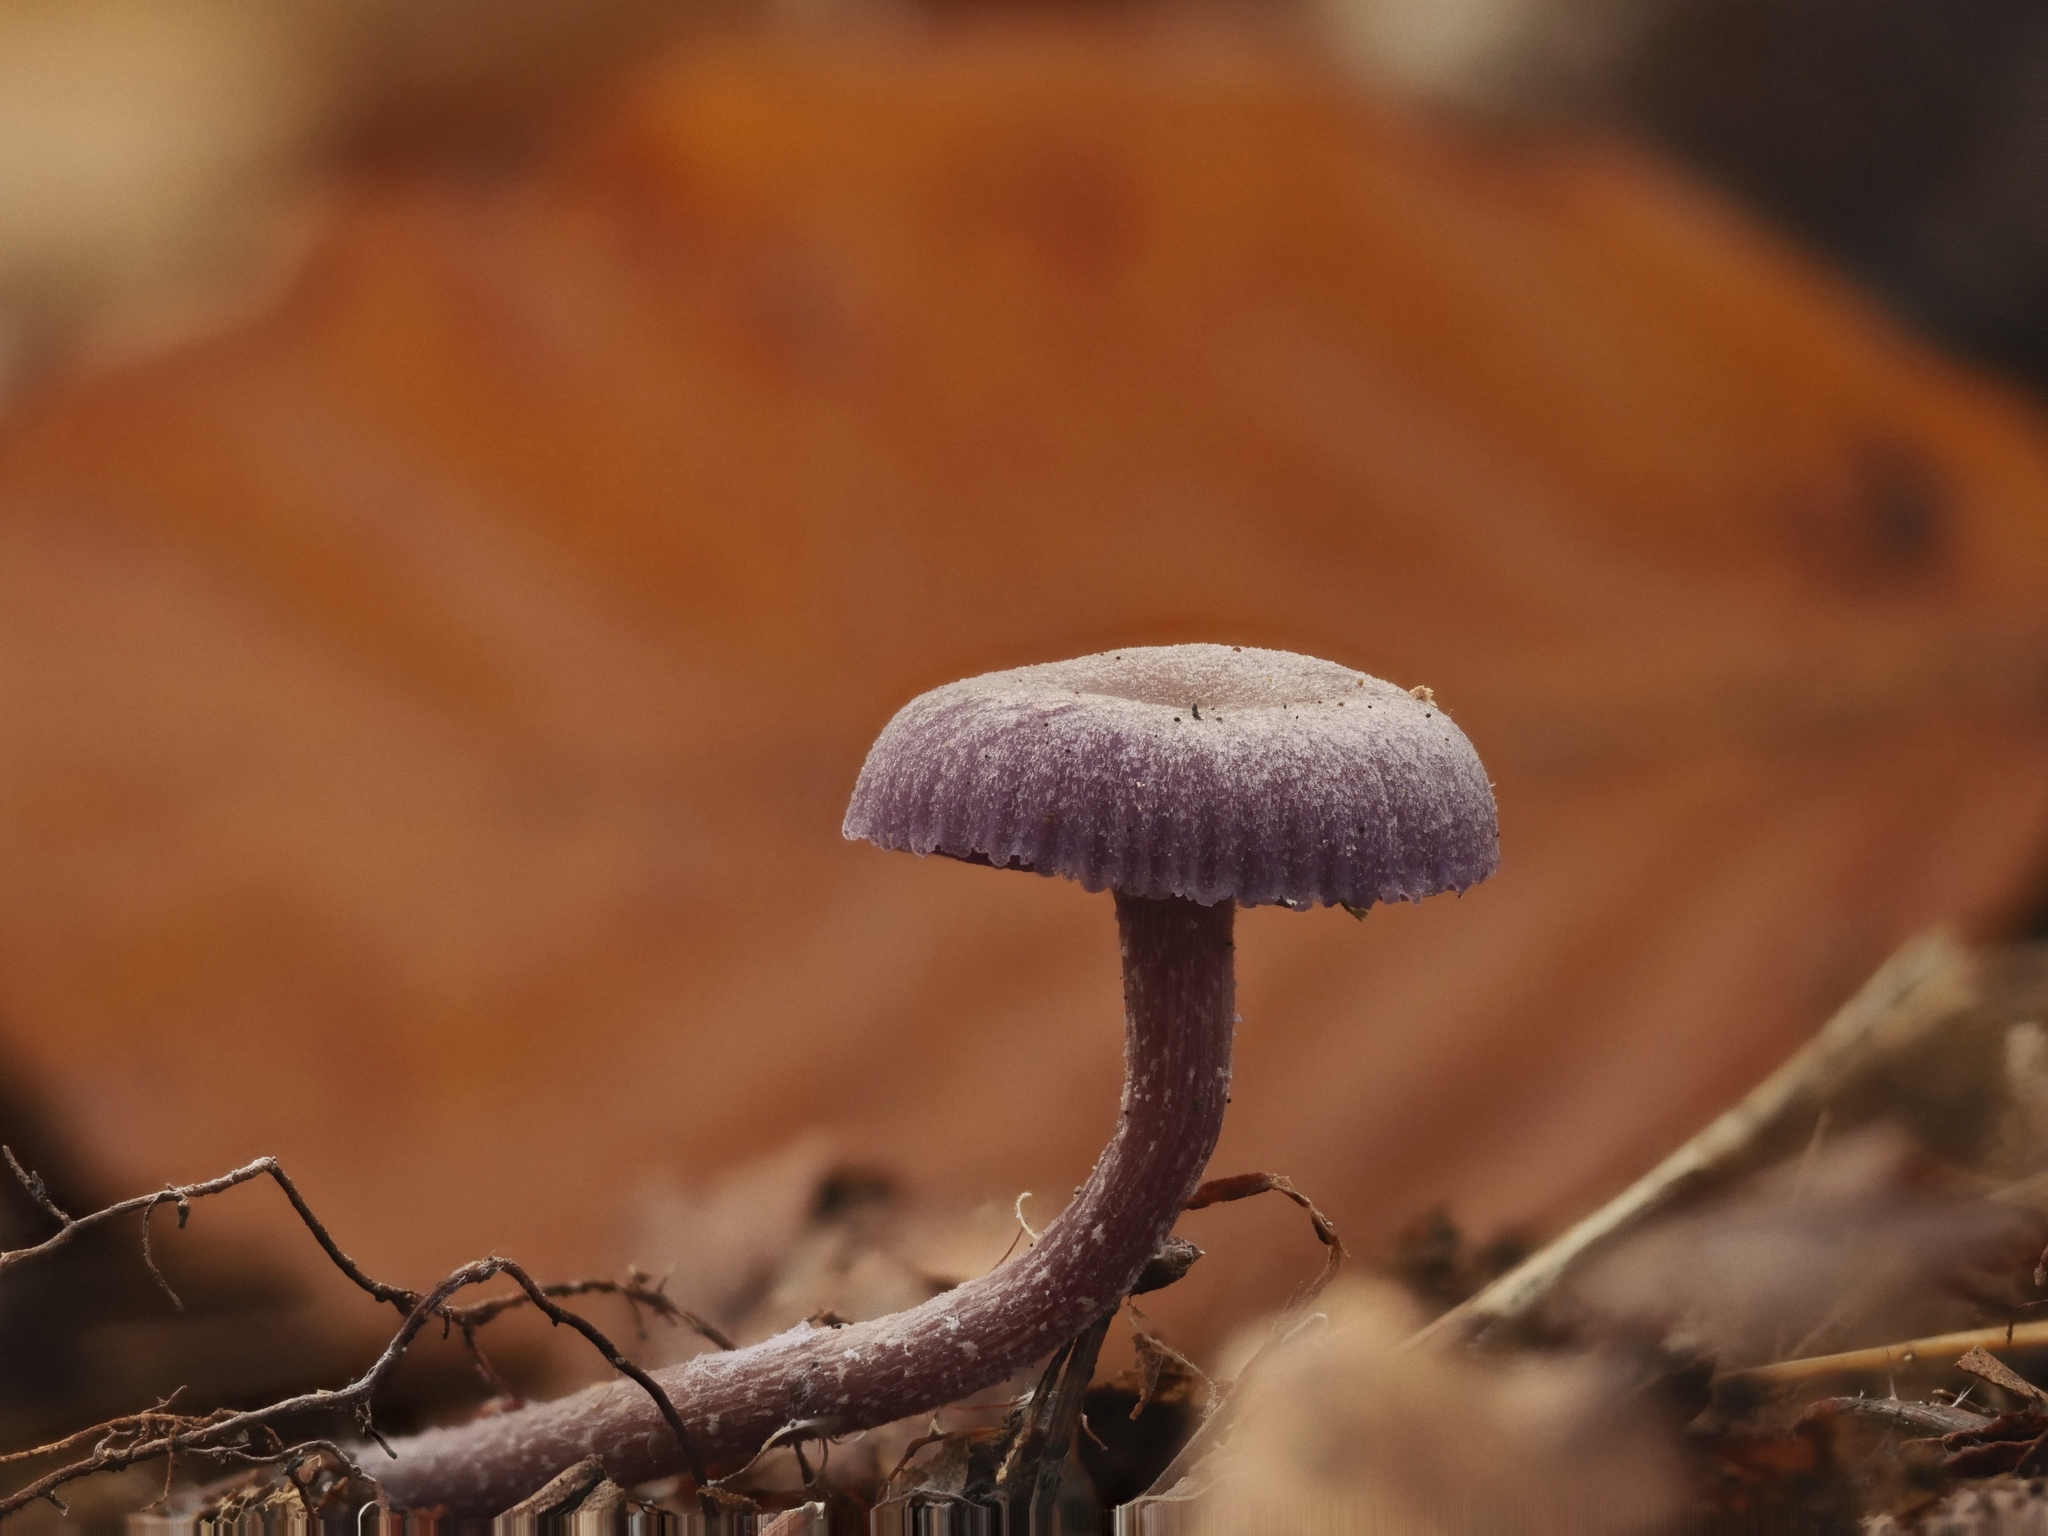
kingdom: Fungi
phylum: Basidiomycota
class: Agaricomycetes
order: Agaricales
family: Hydnangiaceae
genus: Laccaria
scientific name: Laccaria amethystina
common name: Amethyst deceiver
